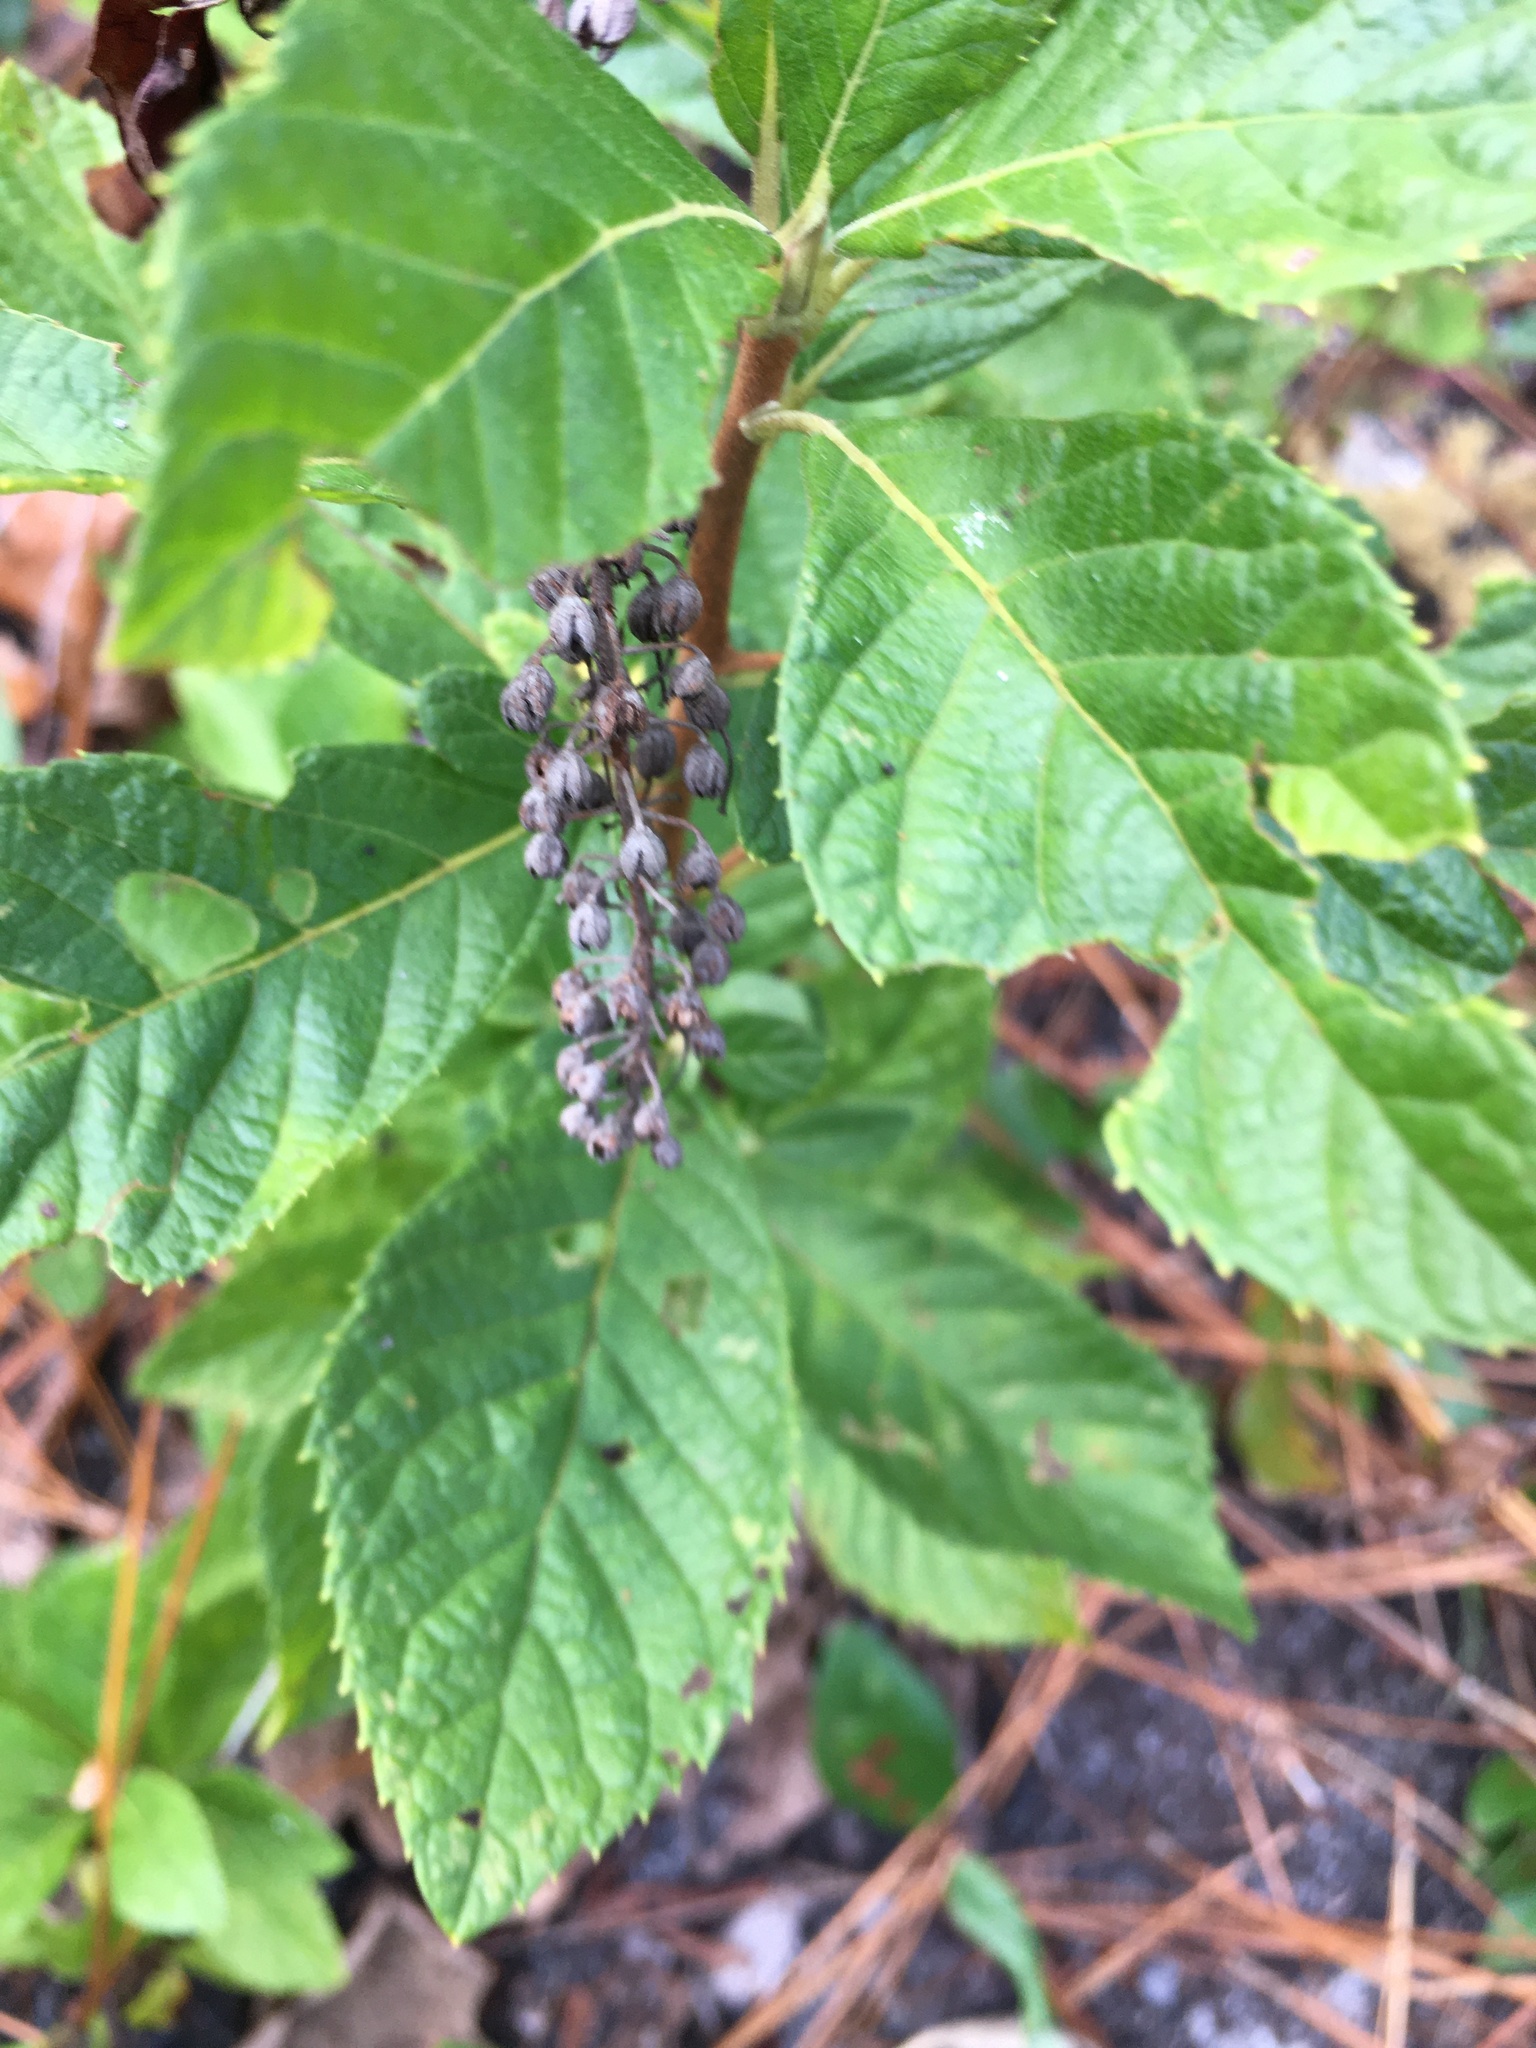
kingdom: Plantae
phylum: Tracheophyta
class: Magnoliopsida
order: Ericales
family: Clethraceae
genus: Clethra
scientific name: Clethra alnifolia
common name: Sweet pepperbush
